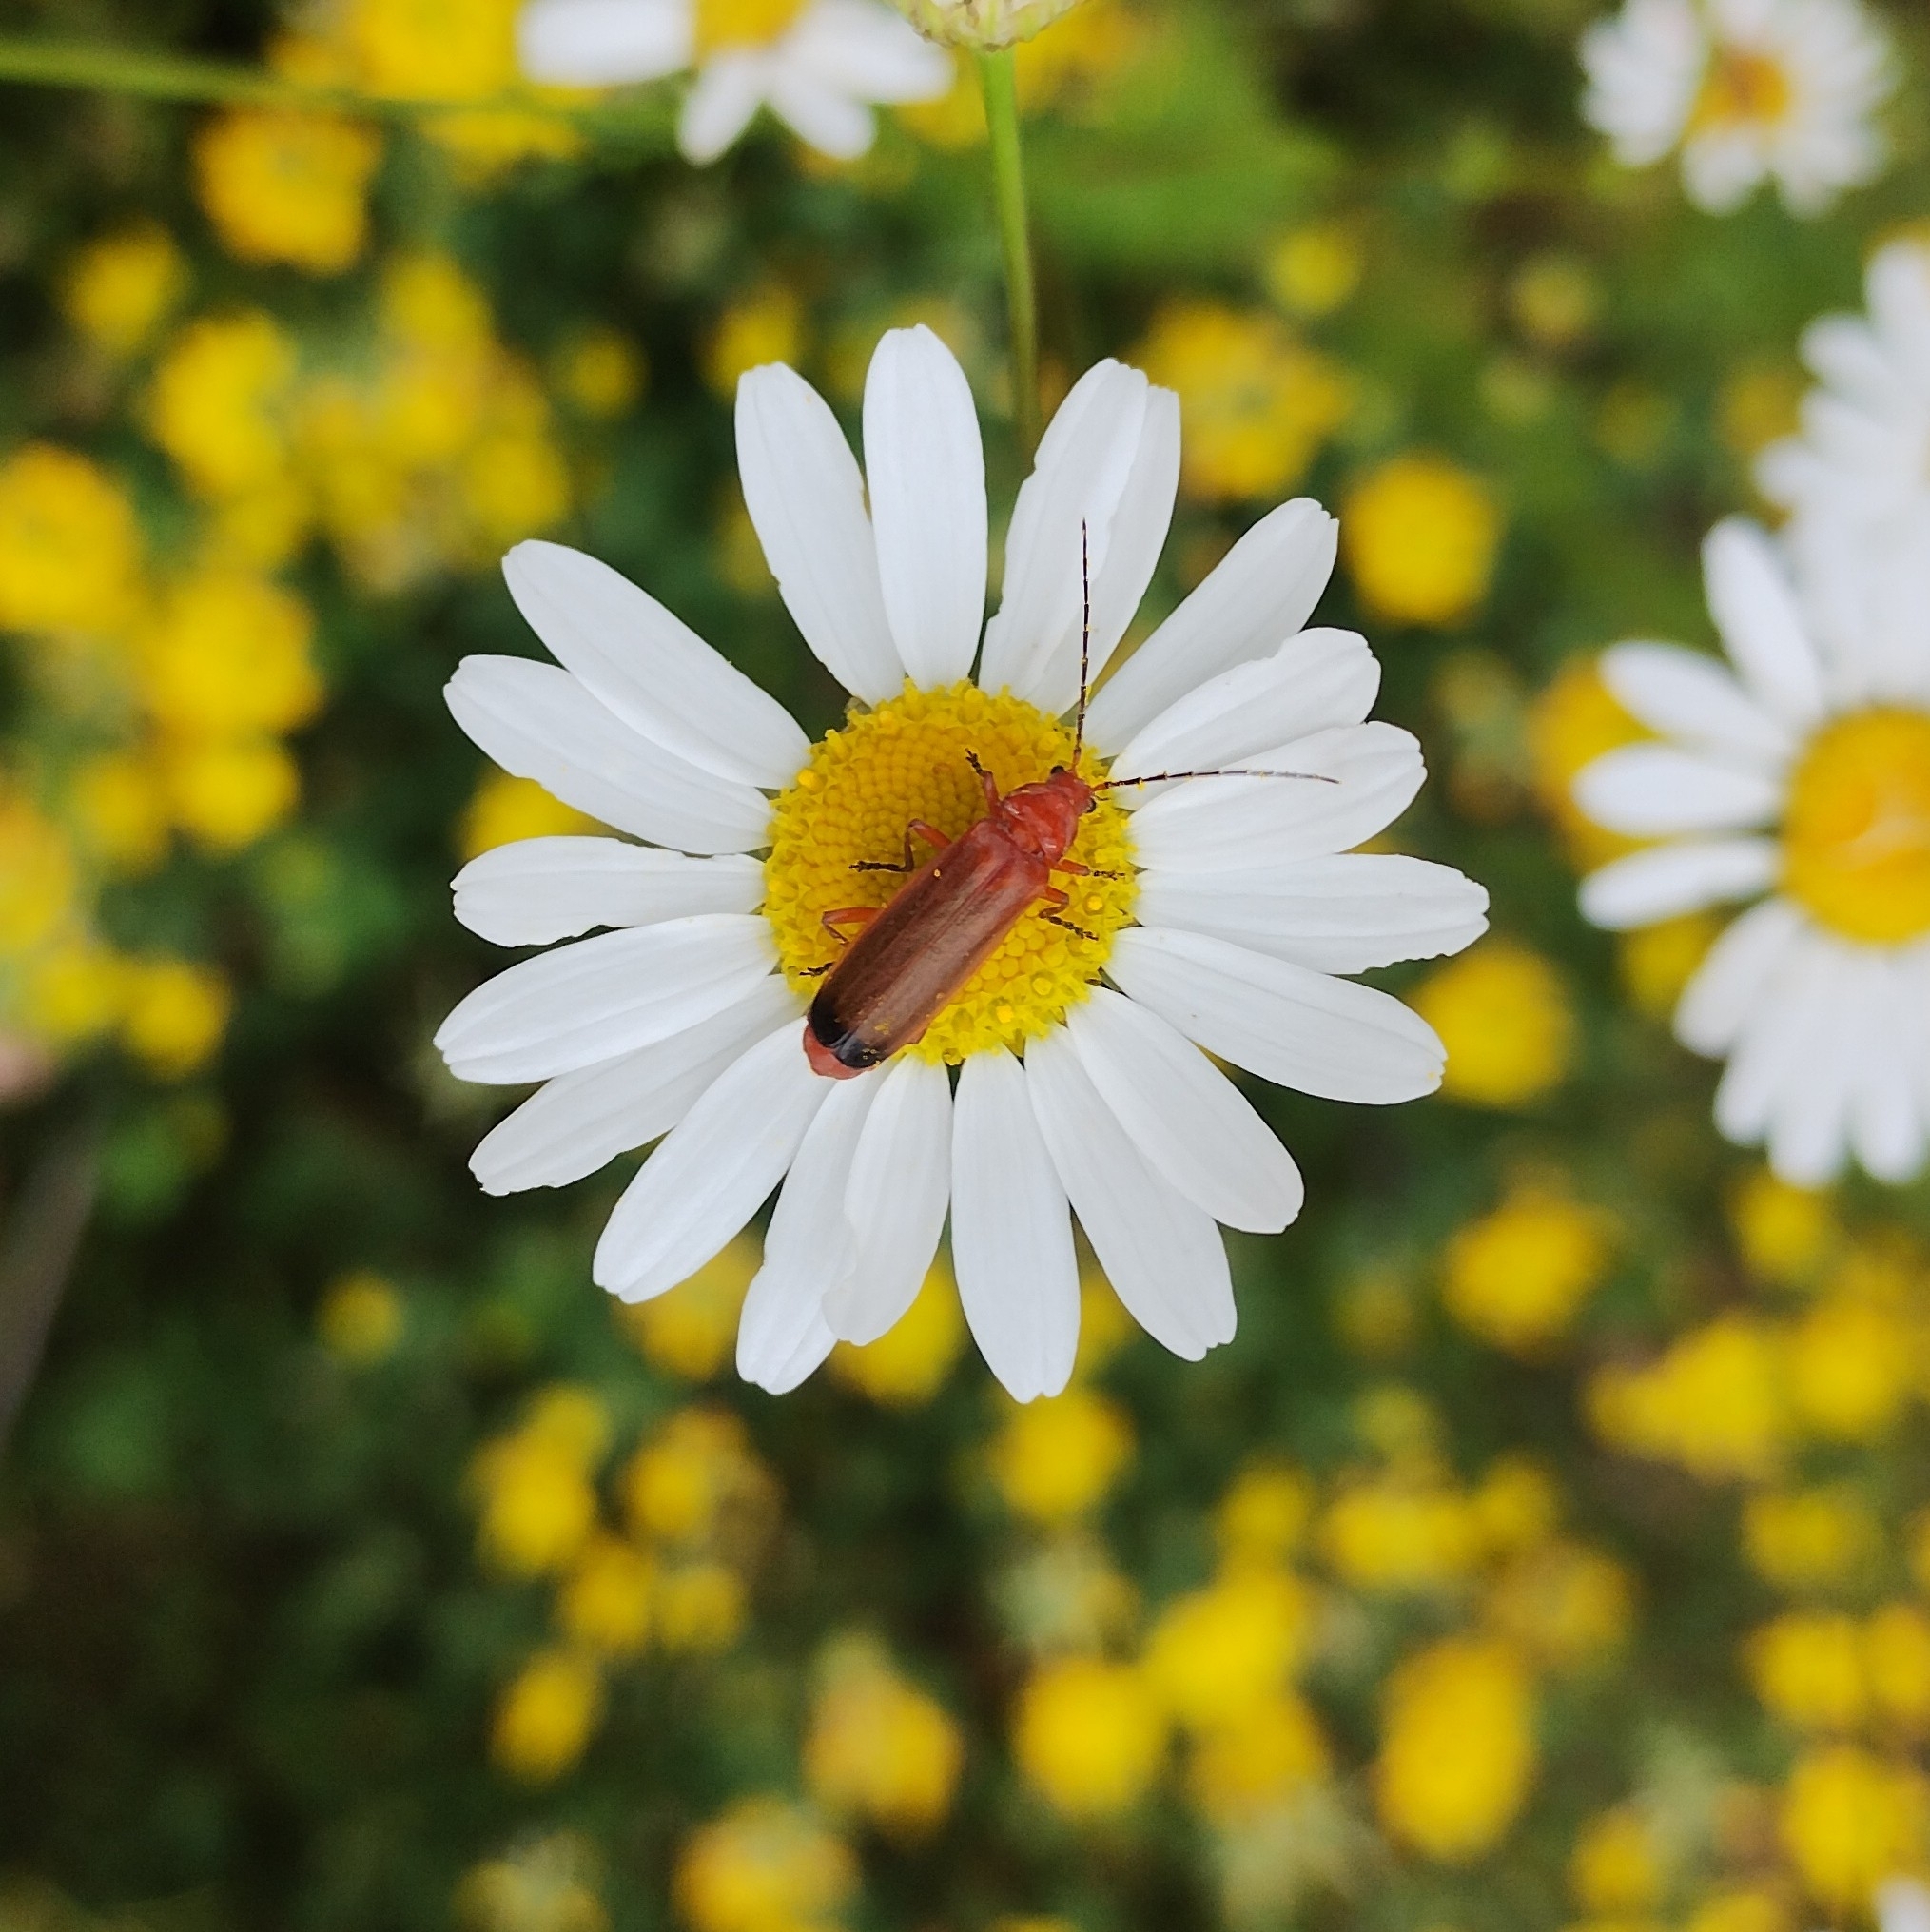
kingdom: Animalia
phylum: Arthropoda
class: Insecta
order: Coleoptera
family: Cantharidae
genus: Rhagonycha
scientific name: Rhagonycha fulva
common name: Common red soldier beetle
